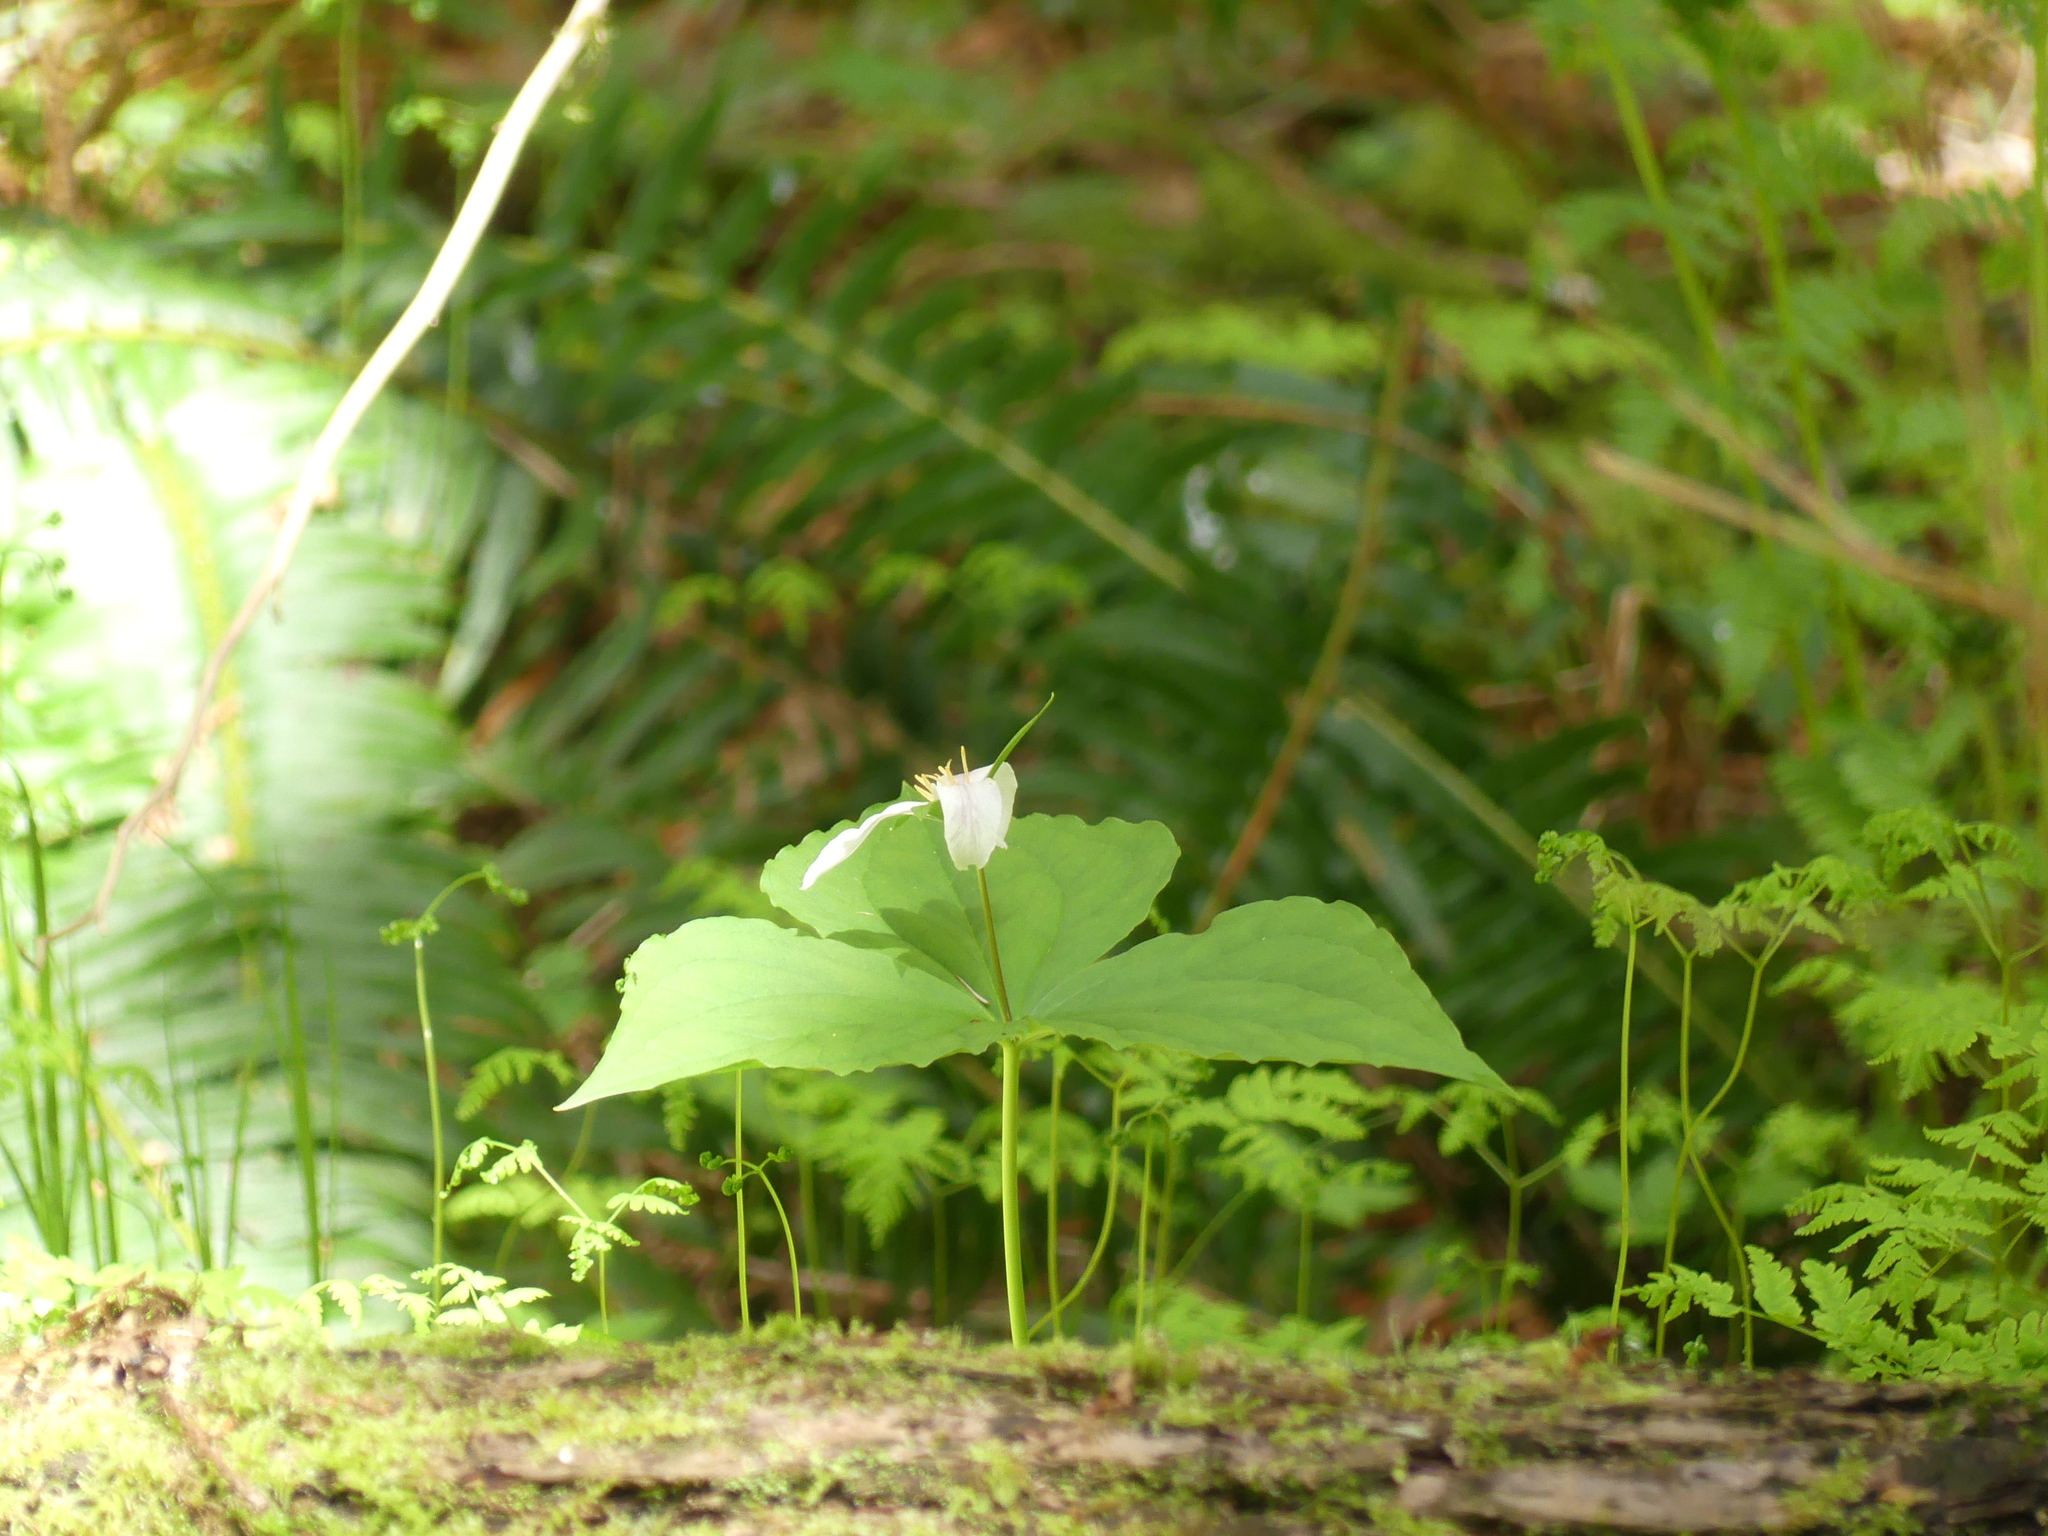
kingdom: Plantae
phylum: Tracheophyta
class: Liliopsida
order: Liliales
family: Melanthiaceae
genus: Trillium
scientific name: Trillium ovatum
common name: Pacific trillium
